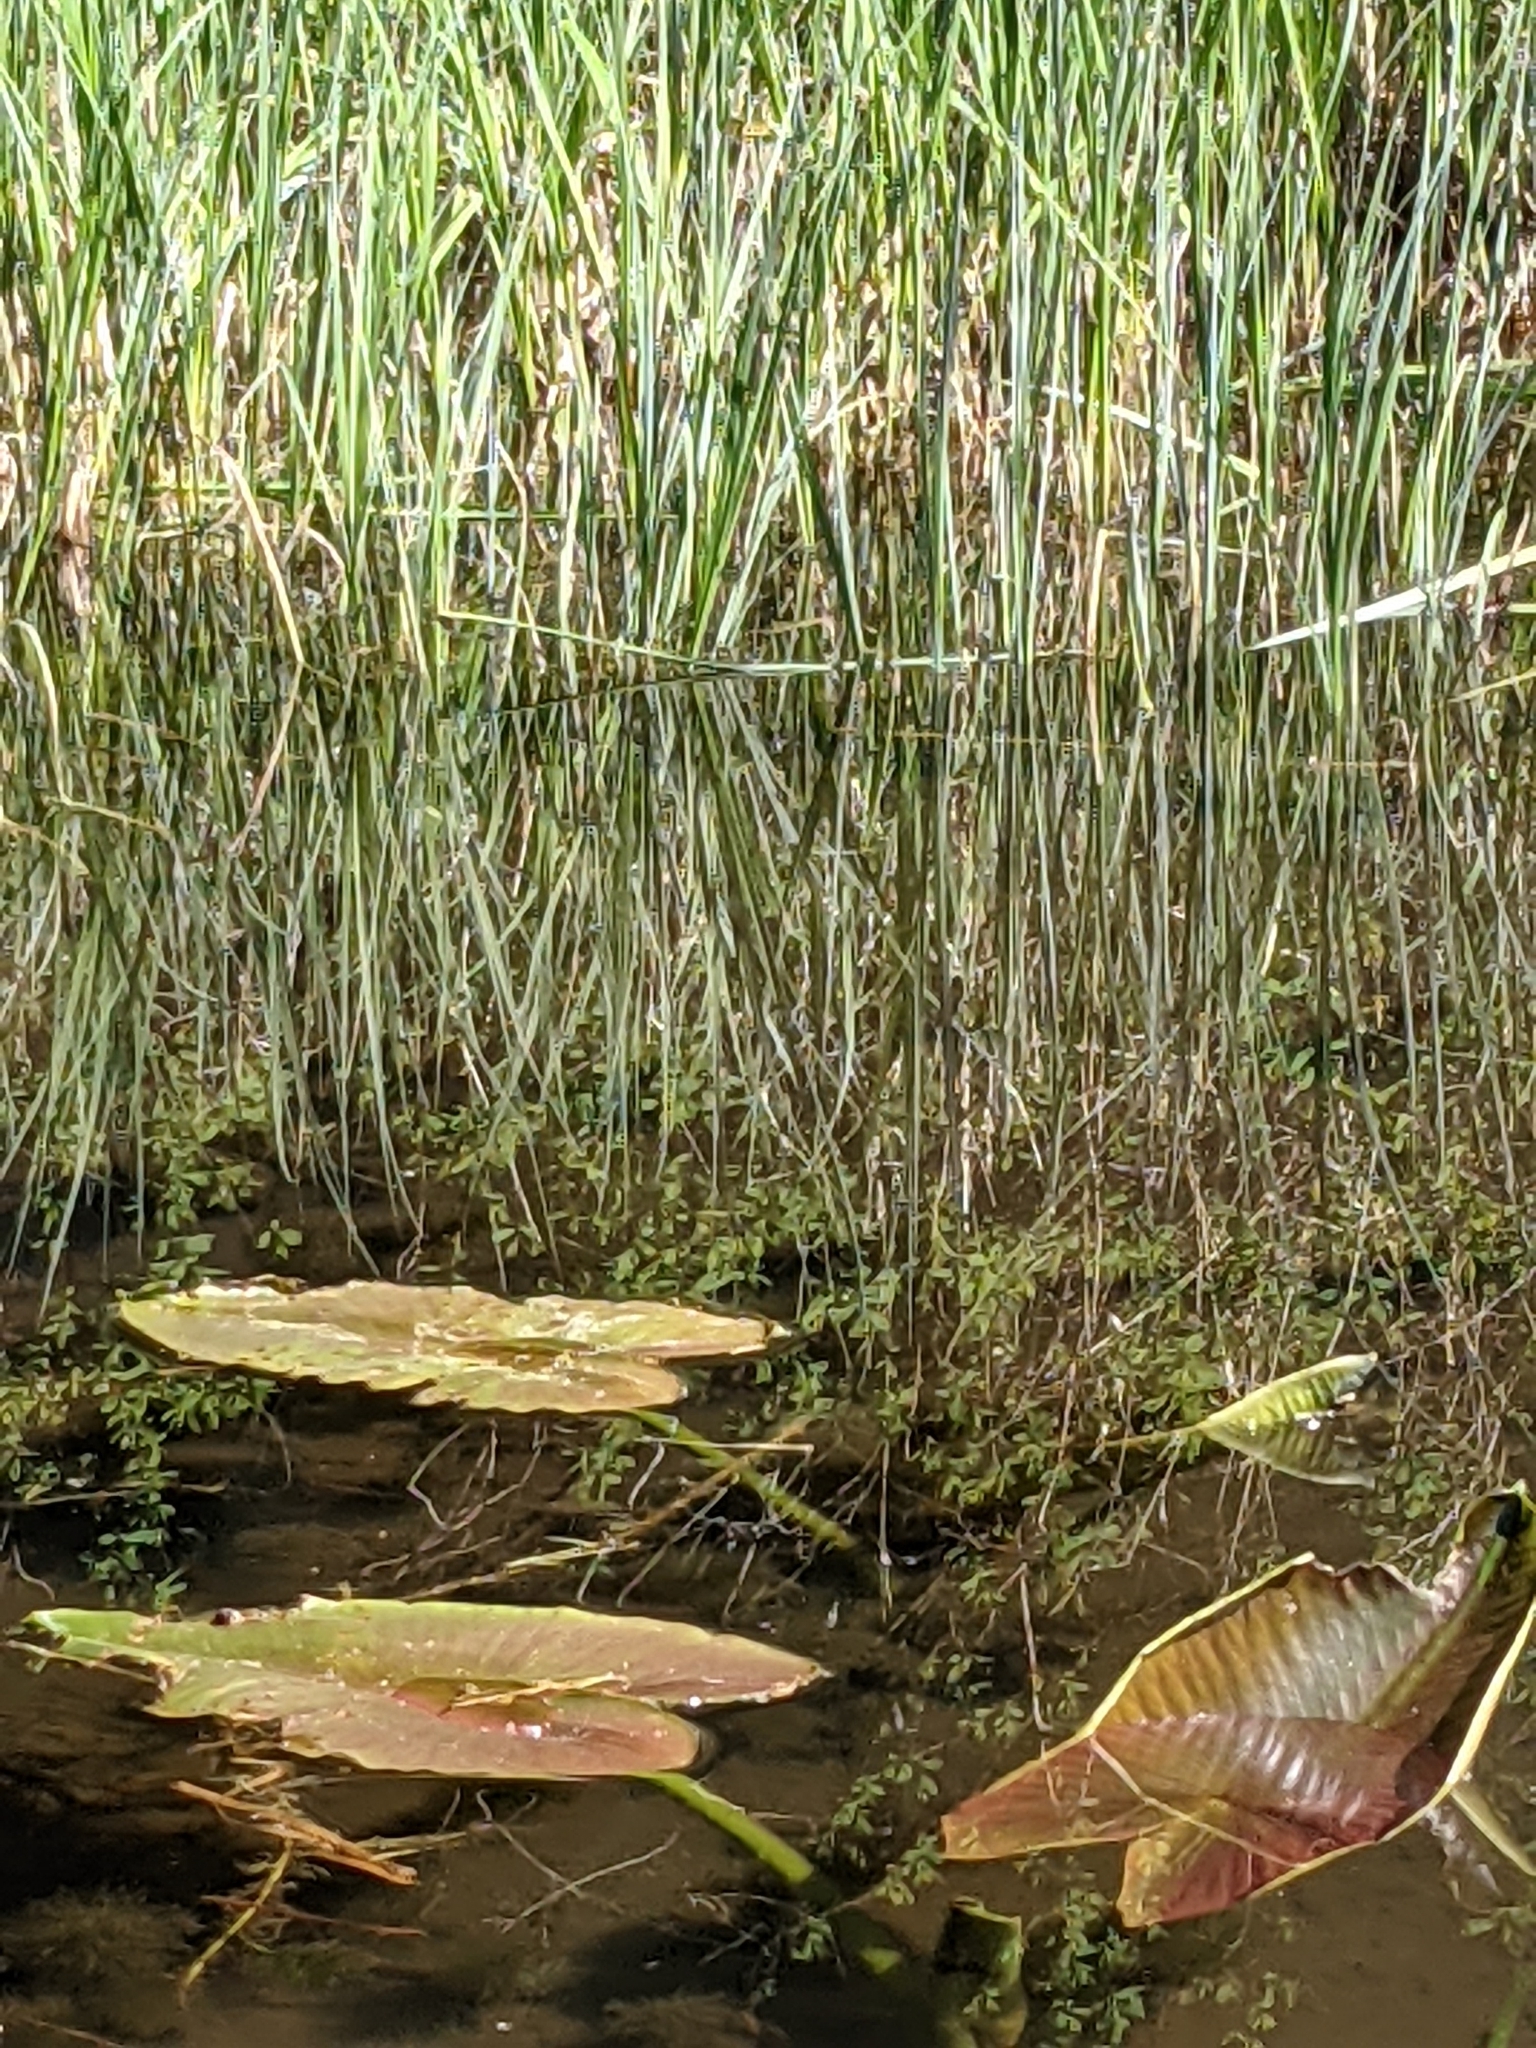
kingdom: Plantae
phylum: Tracheophyta
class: Magnoliopsida
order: Nymphaeales
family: Nymphaeaceae
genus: Nuphar
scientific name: Nuphar polysepala
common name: Rocky mountain cow-lily
